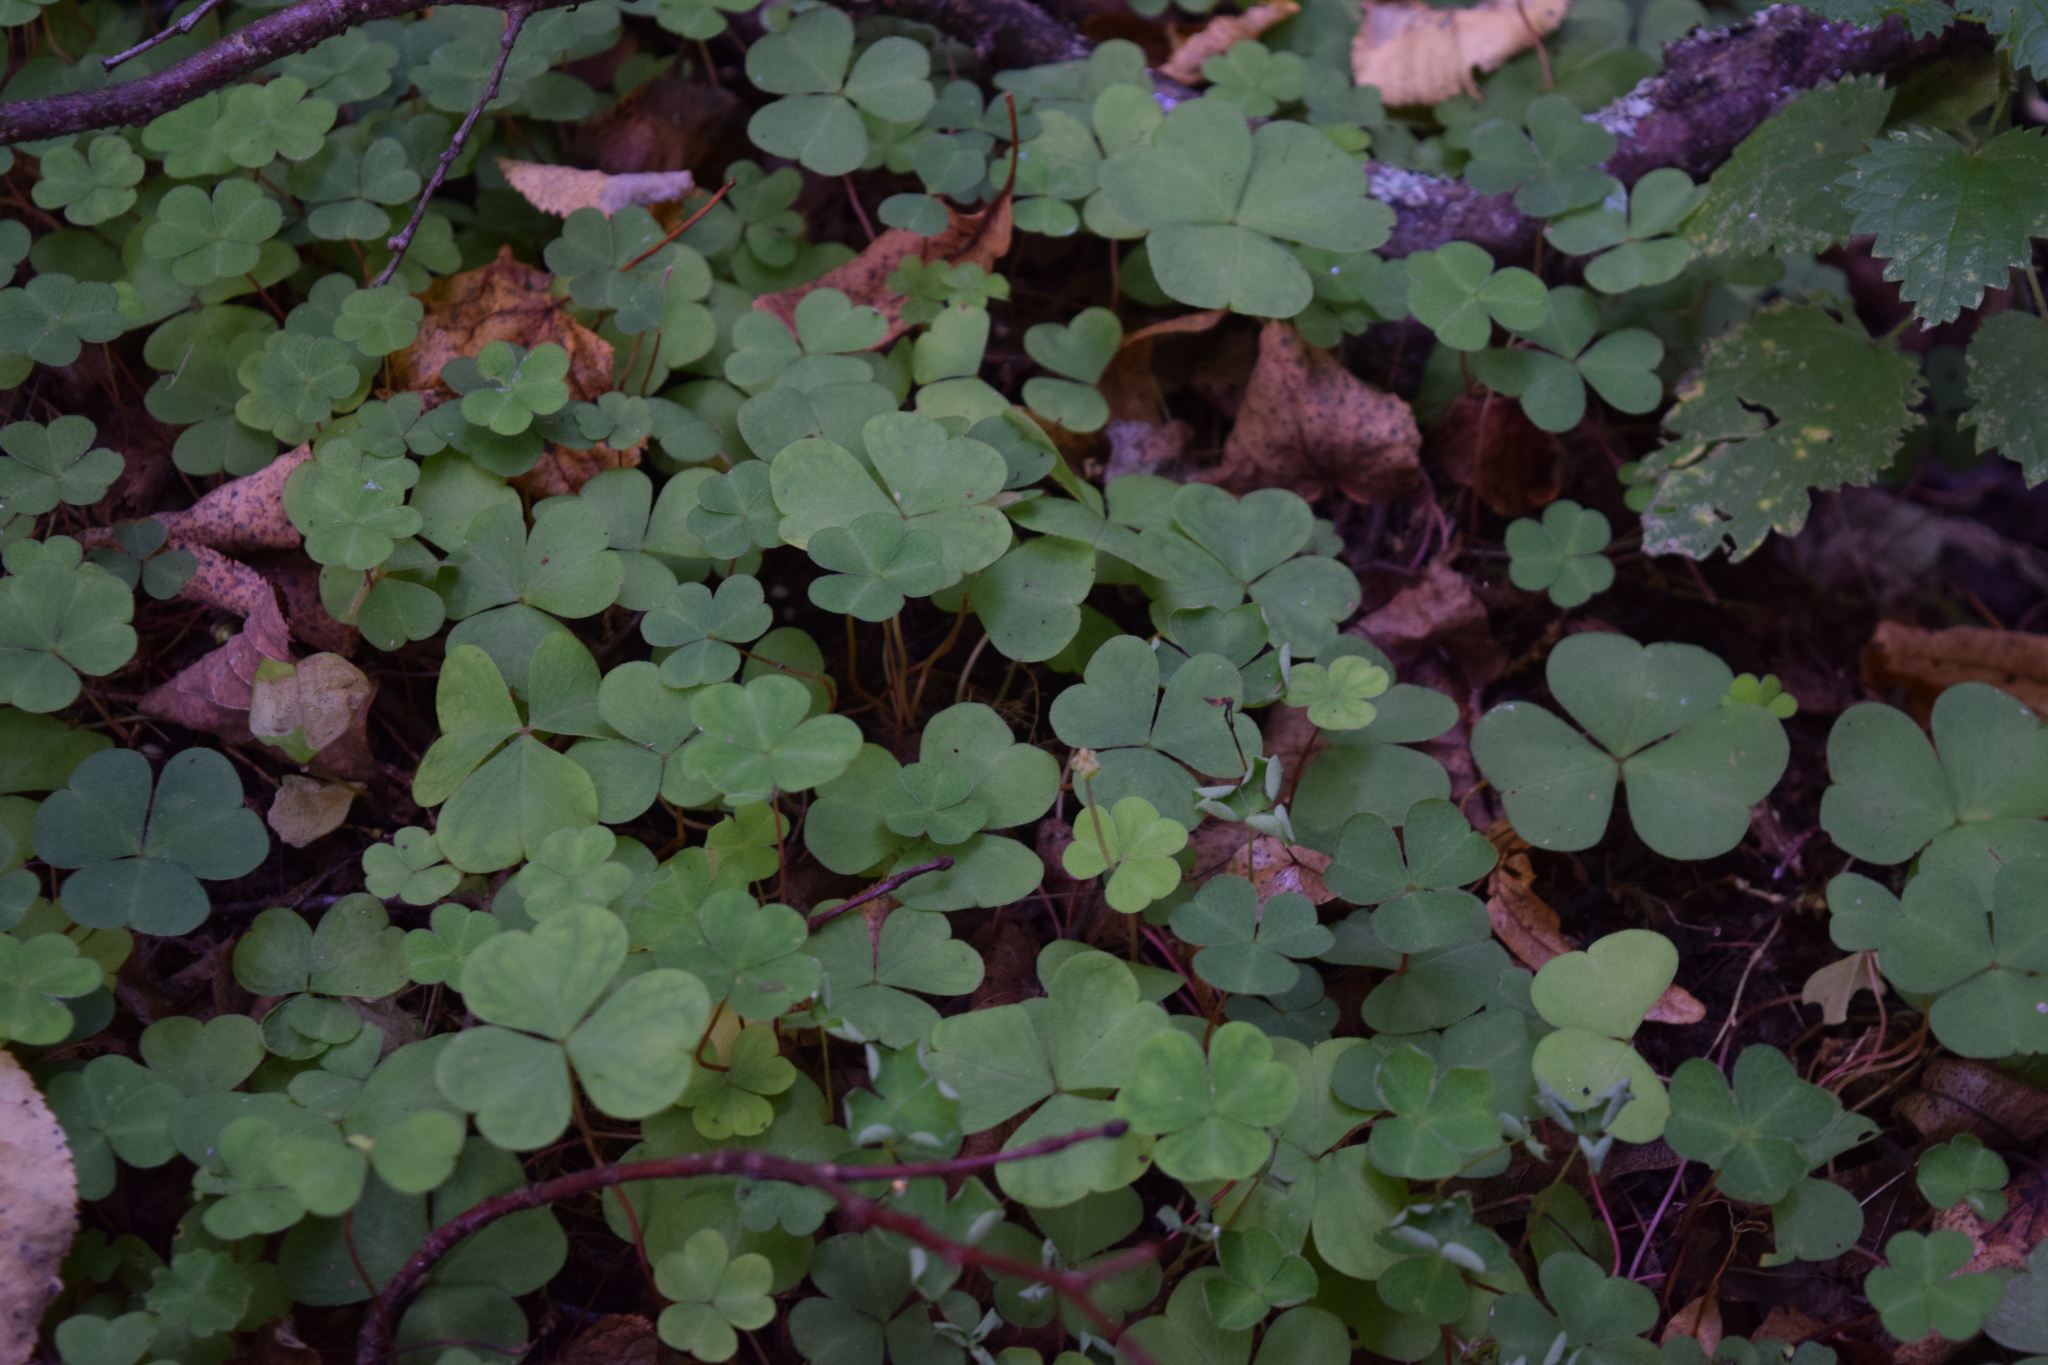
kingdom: Plantae
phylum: Tracheophyta
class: Magnoliopsida
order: Oxalidales
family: Oxalidaceae
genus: Oxalis
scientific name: Oxalis acetosella
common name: Wood-sorrel
